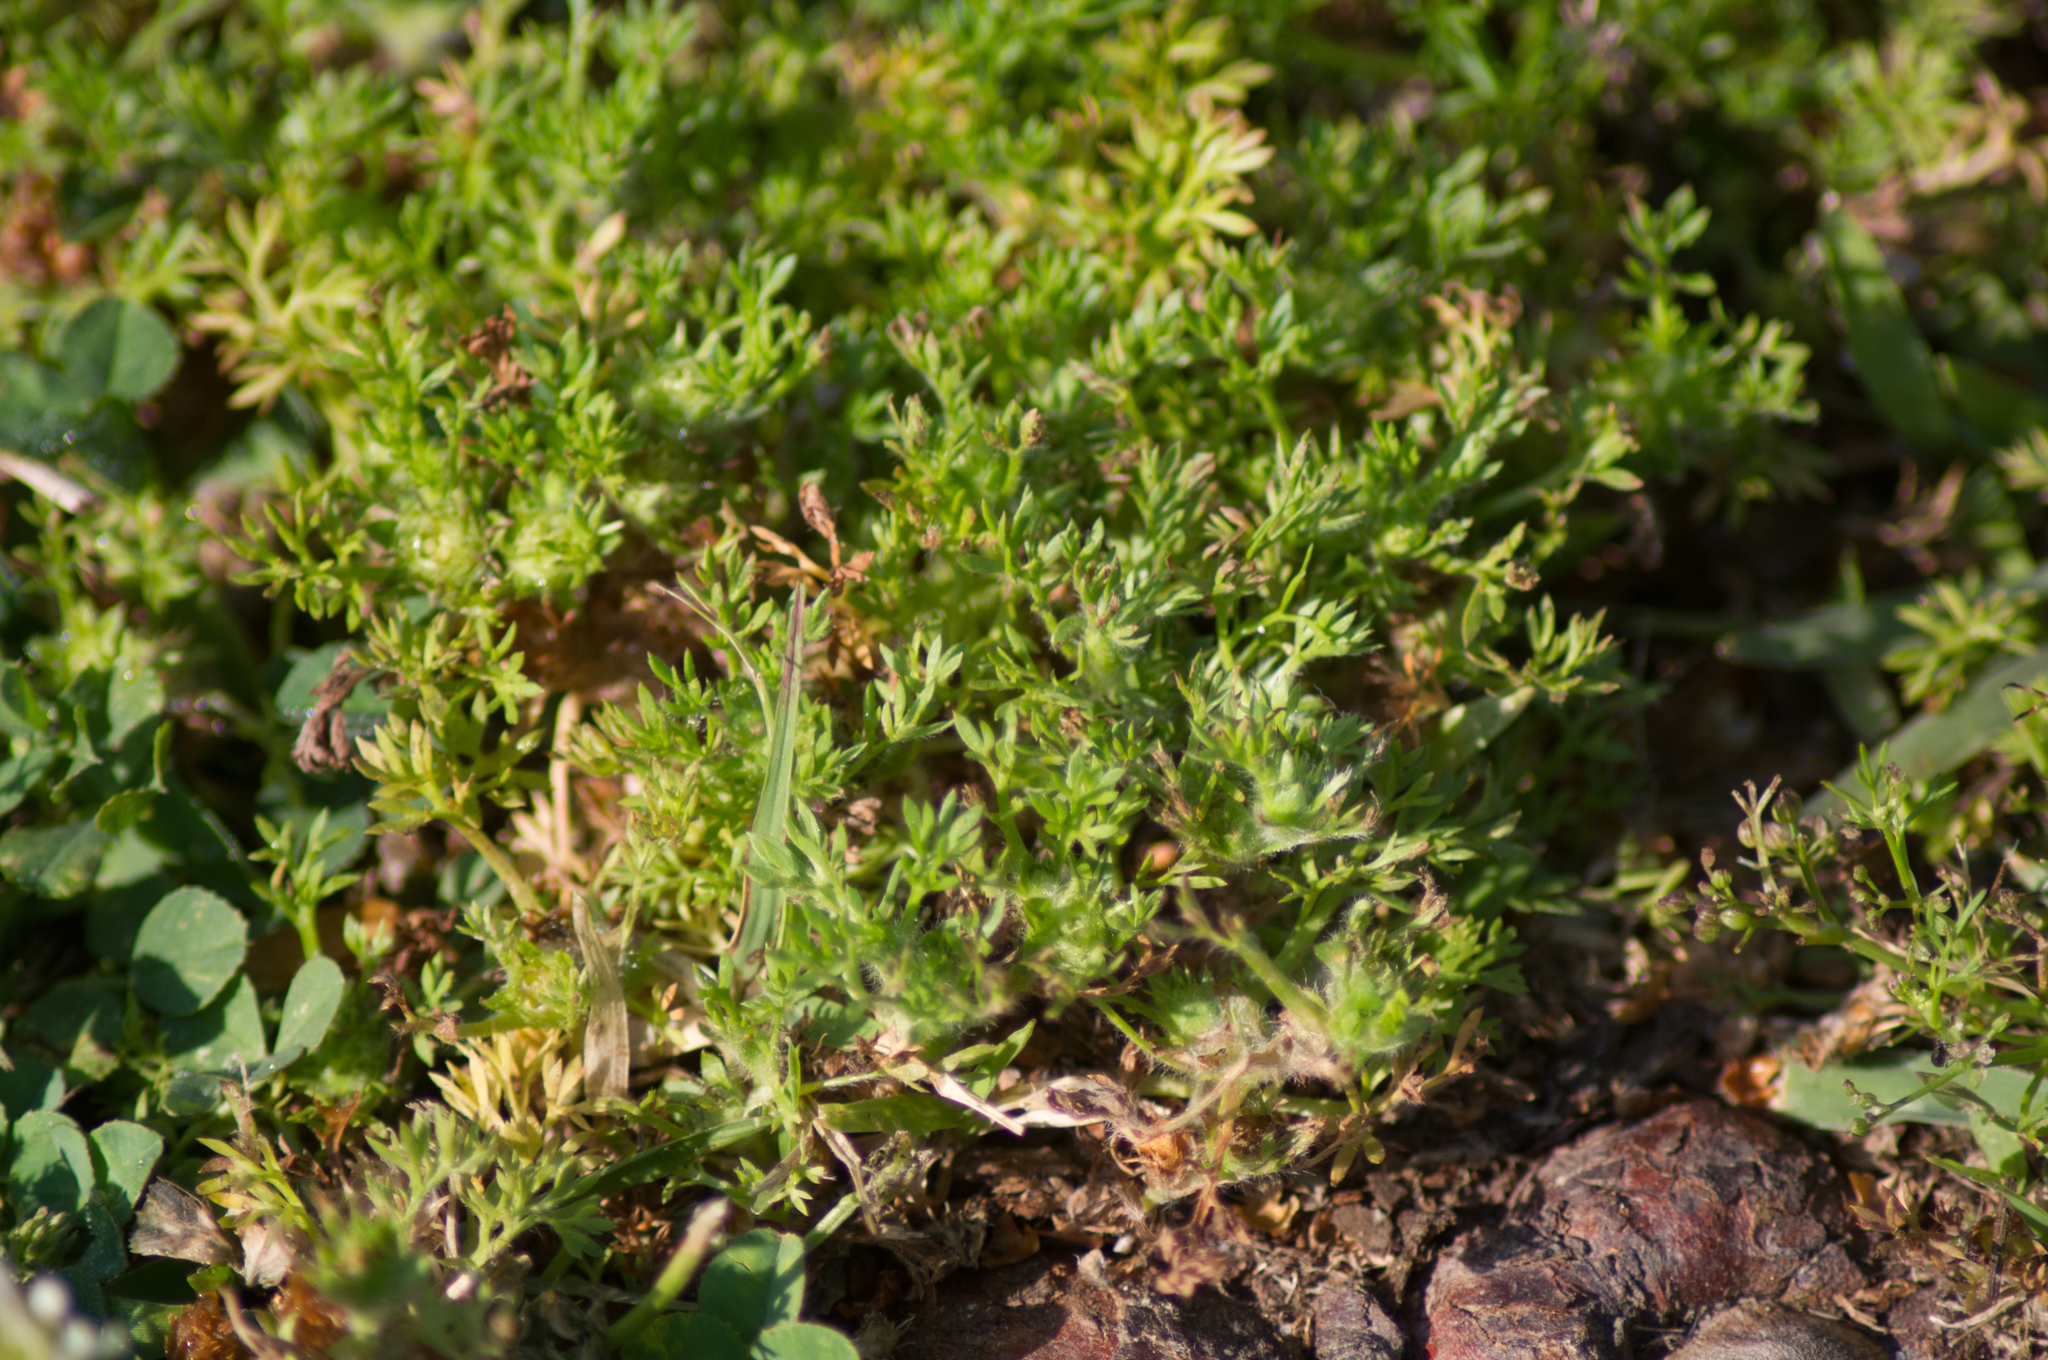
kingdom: Plantae
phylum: Tracheophyta
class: Magnoliopsida
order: Asterales
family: Asteraceae
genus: Soliva
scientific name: Soliva sessilis
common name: Field burrweed
